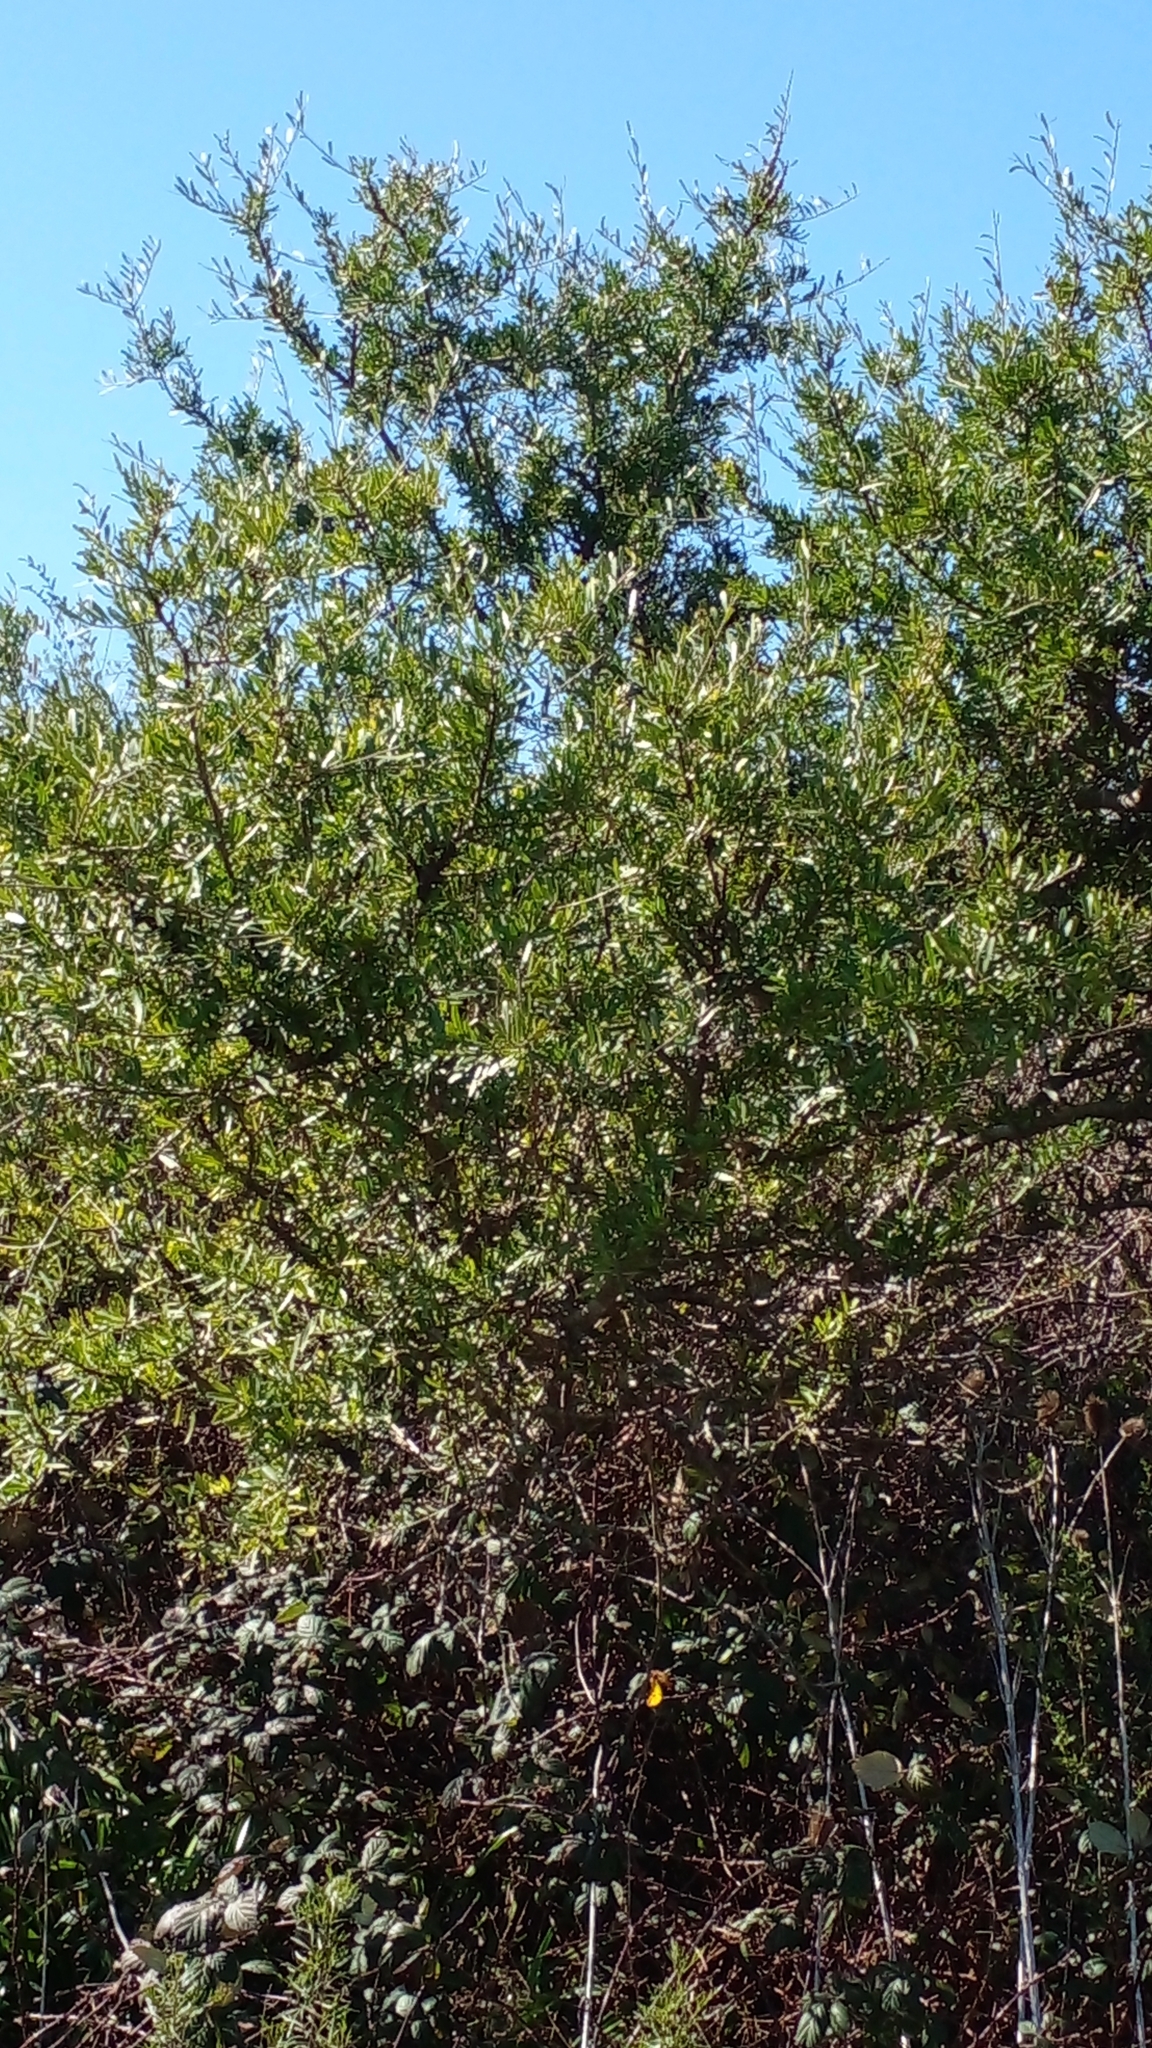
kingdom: Plantae
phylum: Tracheophyta
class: Magnoliopsida
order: Sapindales
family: Anacardiaceae
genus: Schinus
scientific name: Schinus longifolia
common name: Longleaf peppertree
